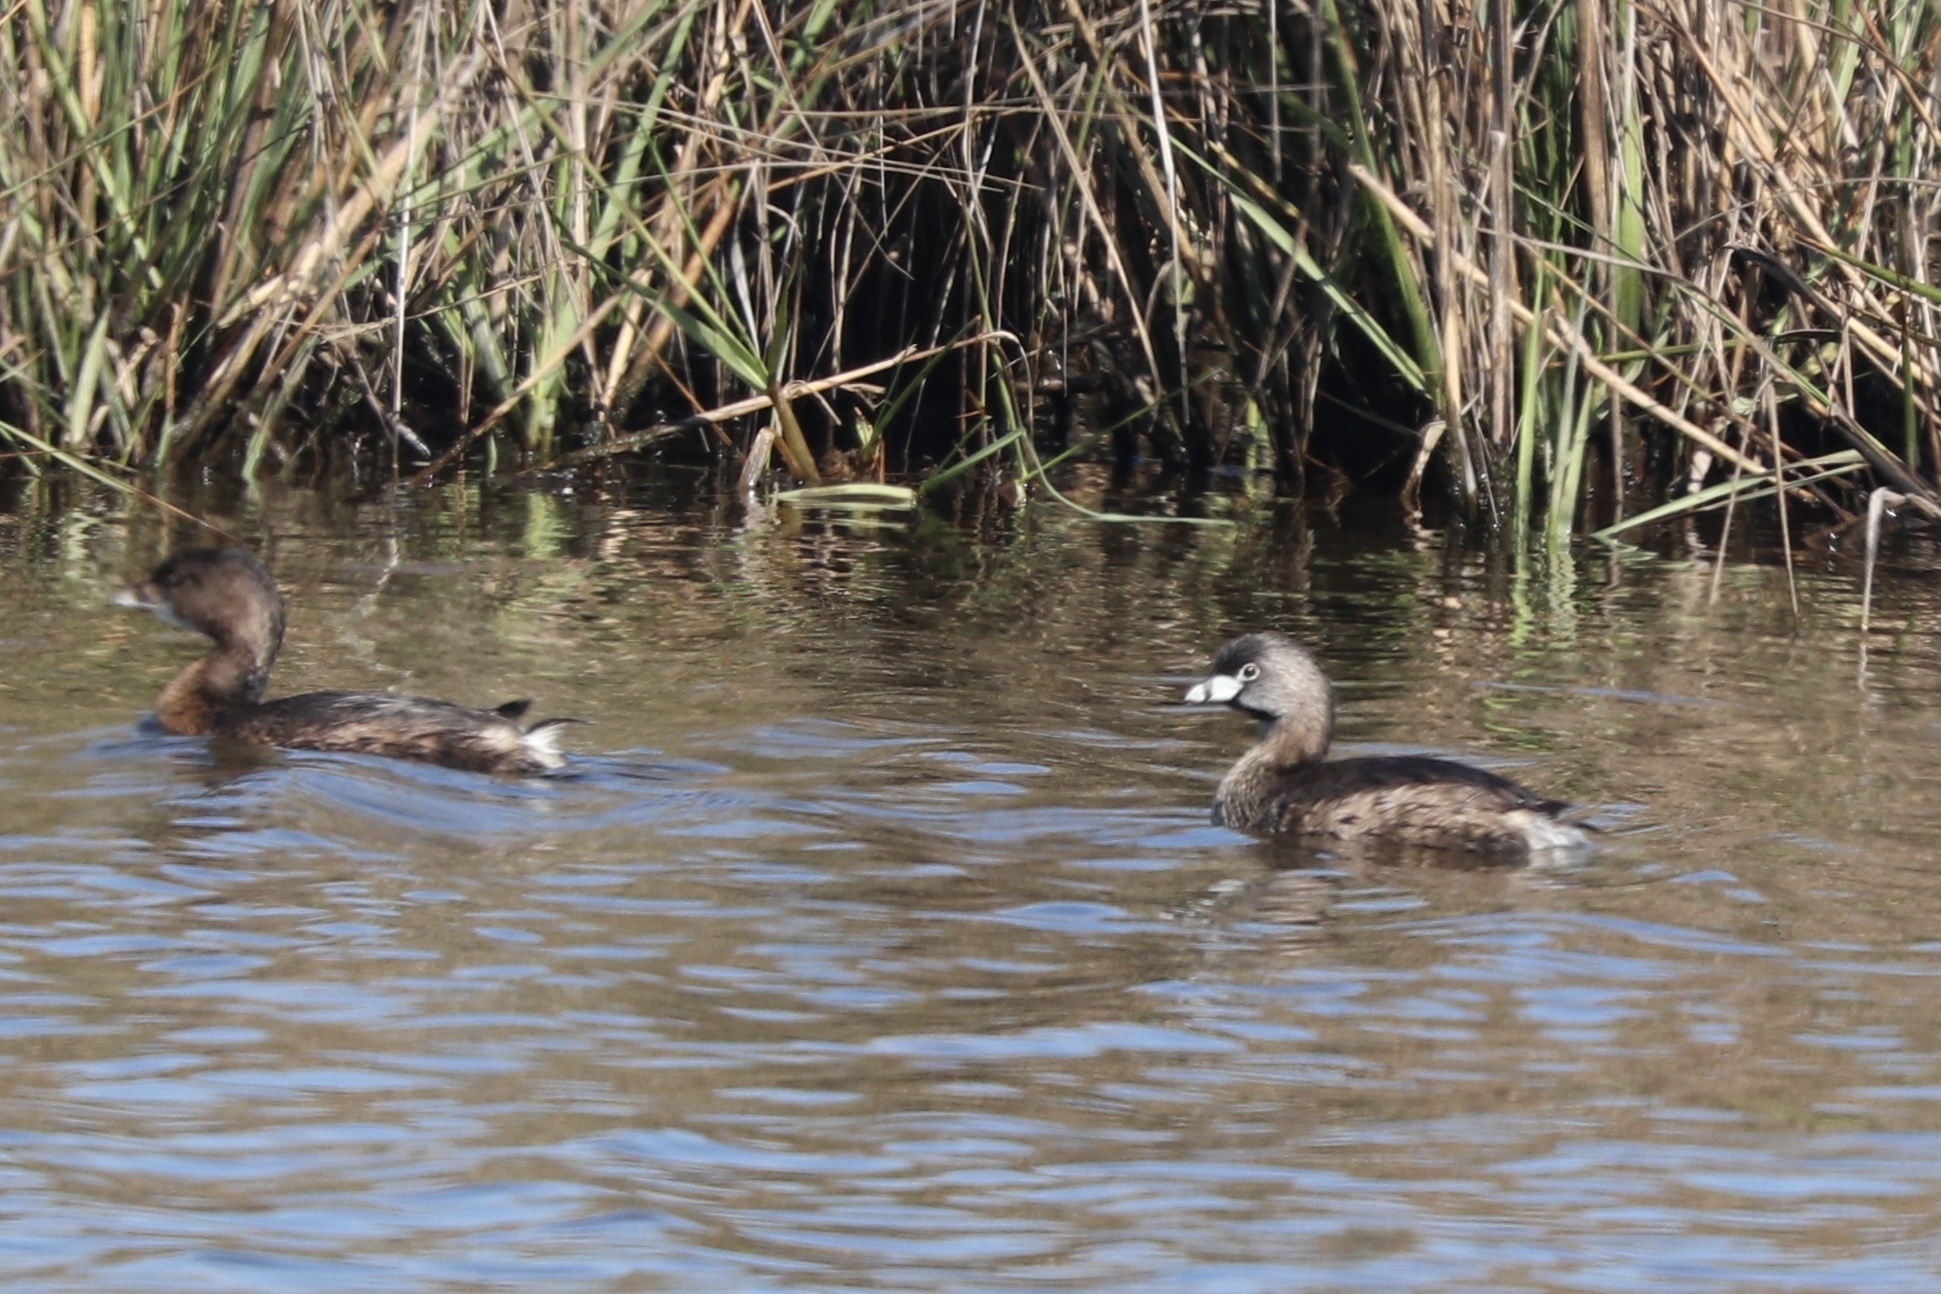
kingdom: Animalia
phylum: Chordata
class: Aves
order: Podicipediformes
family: Podicipedidae
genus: Podilymbus
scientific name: Podilymbus podiceps
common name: Pied-billed grebe
